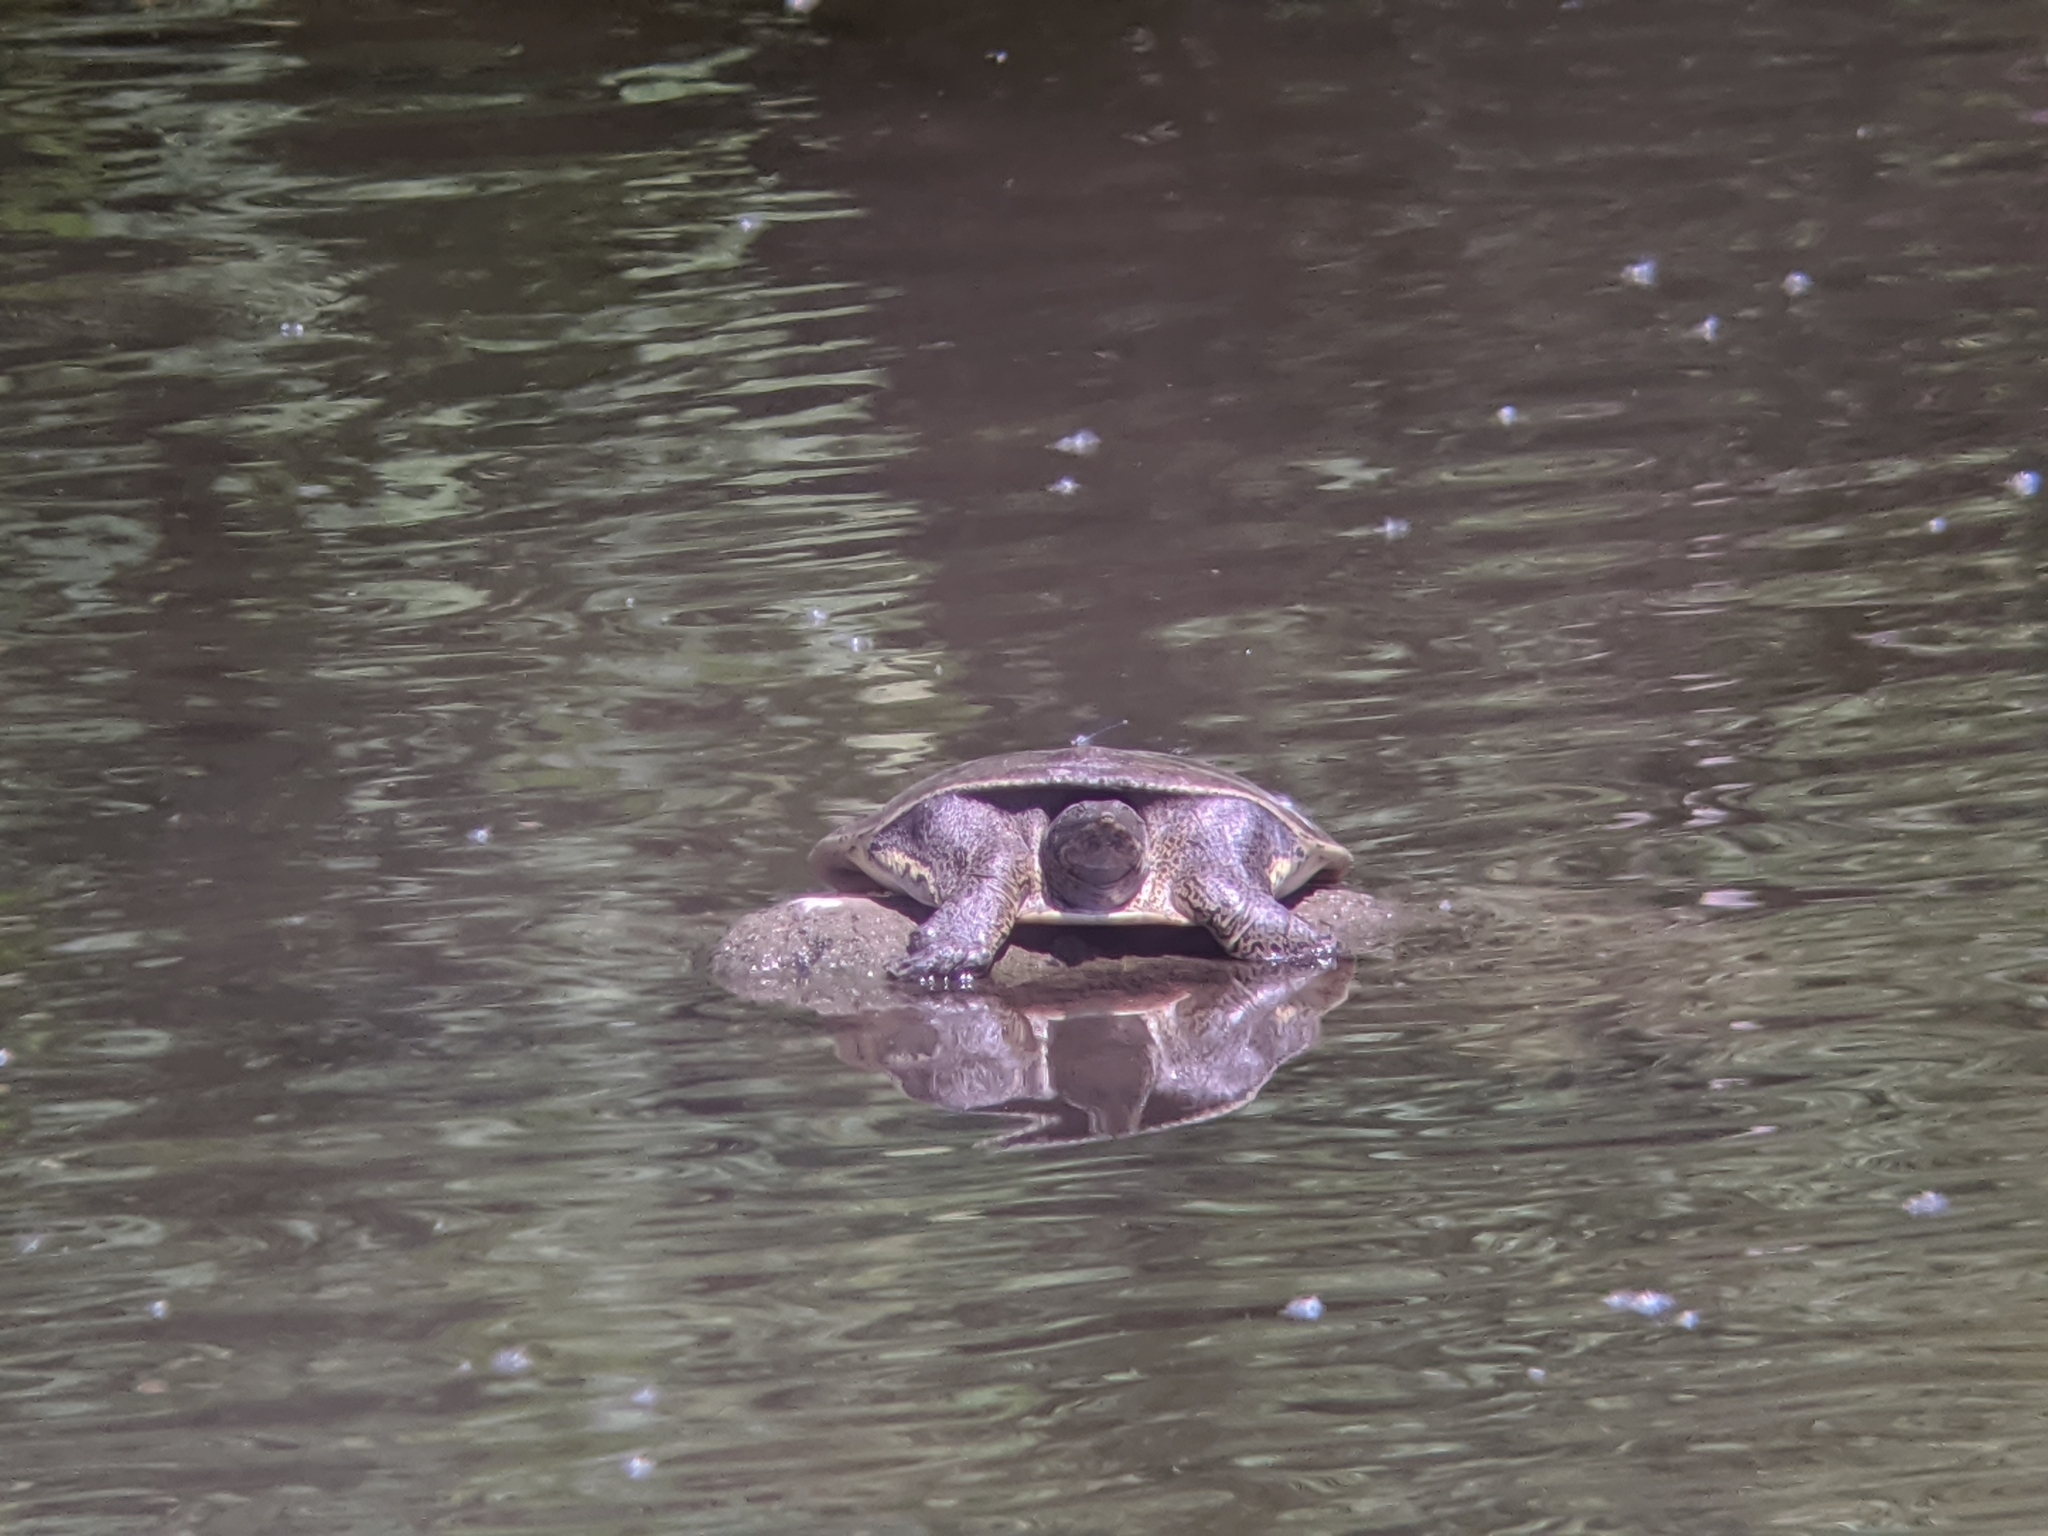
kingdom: Animalia
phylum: Chordata
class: Testudines
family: Trionychidae
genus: Apalone
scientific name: Apalone spinifera
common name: Spiny softshell turtle
